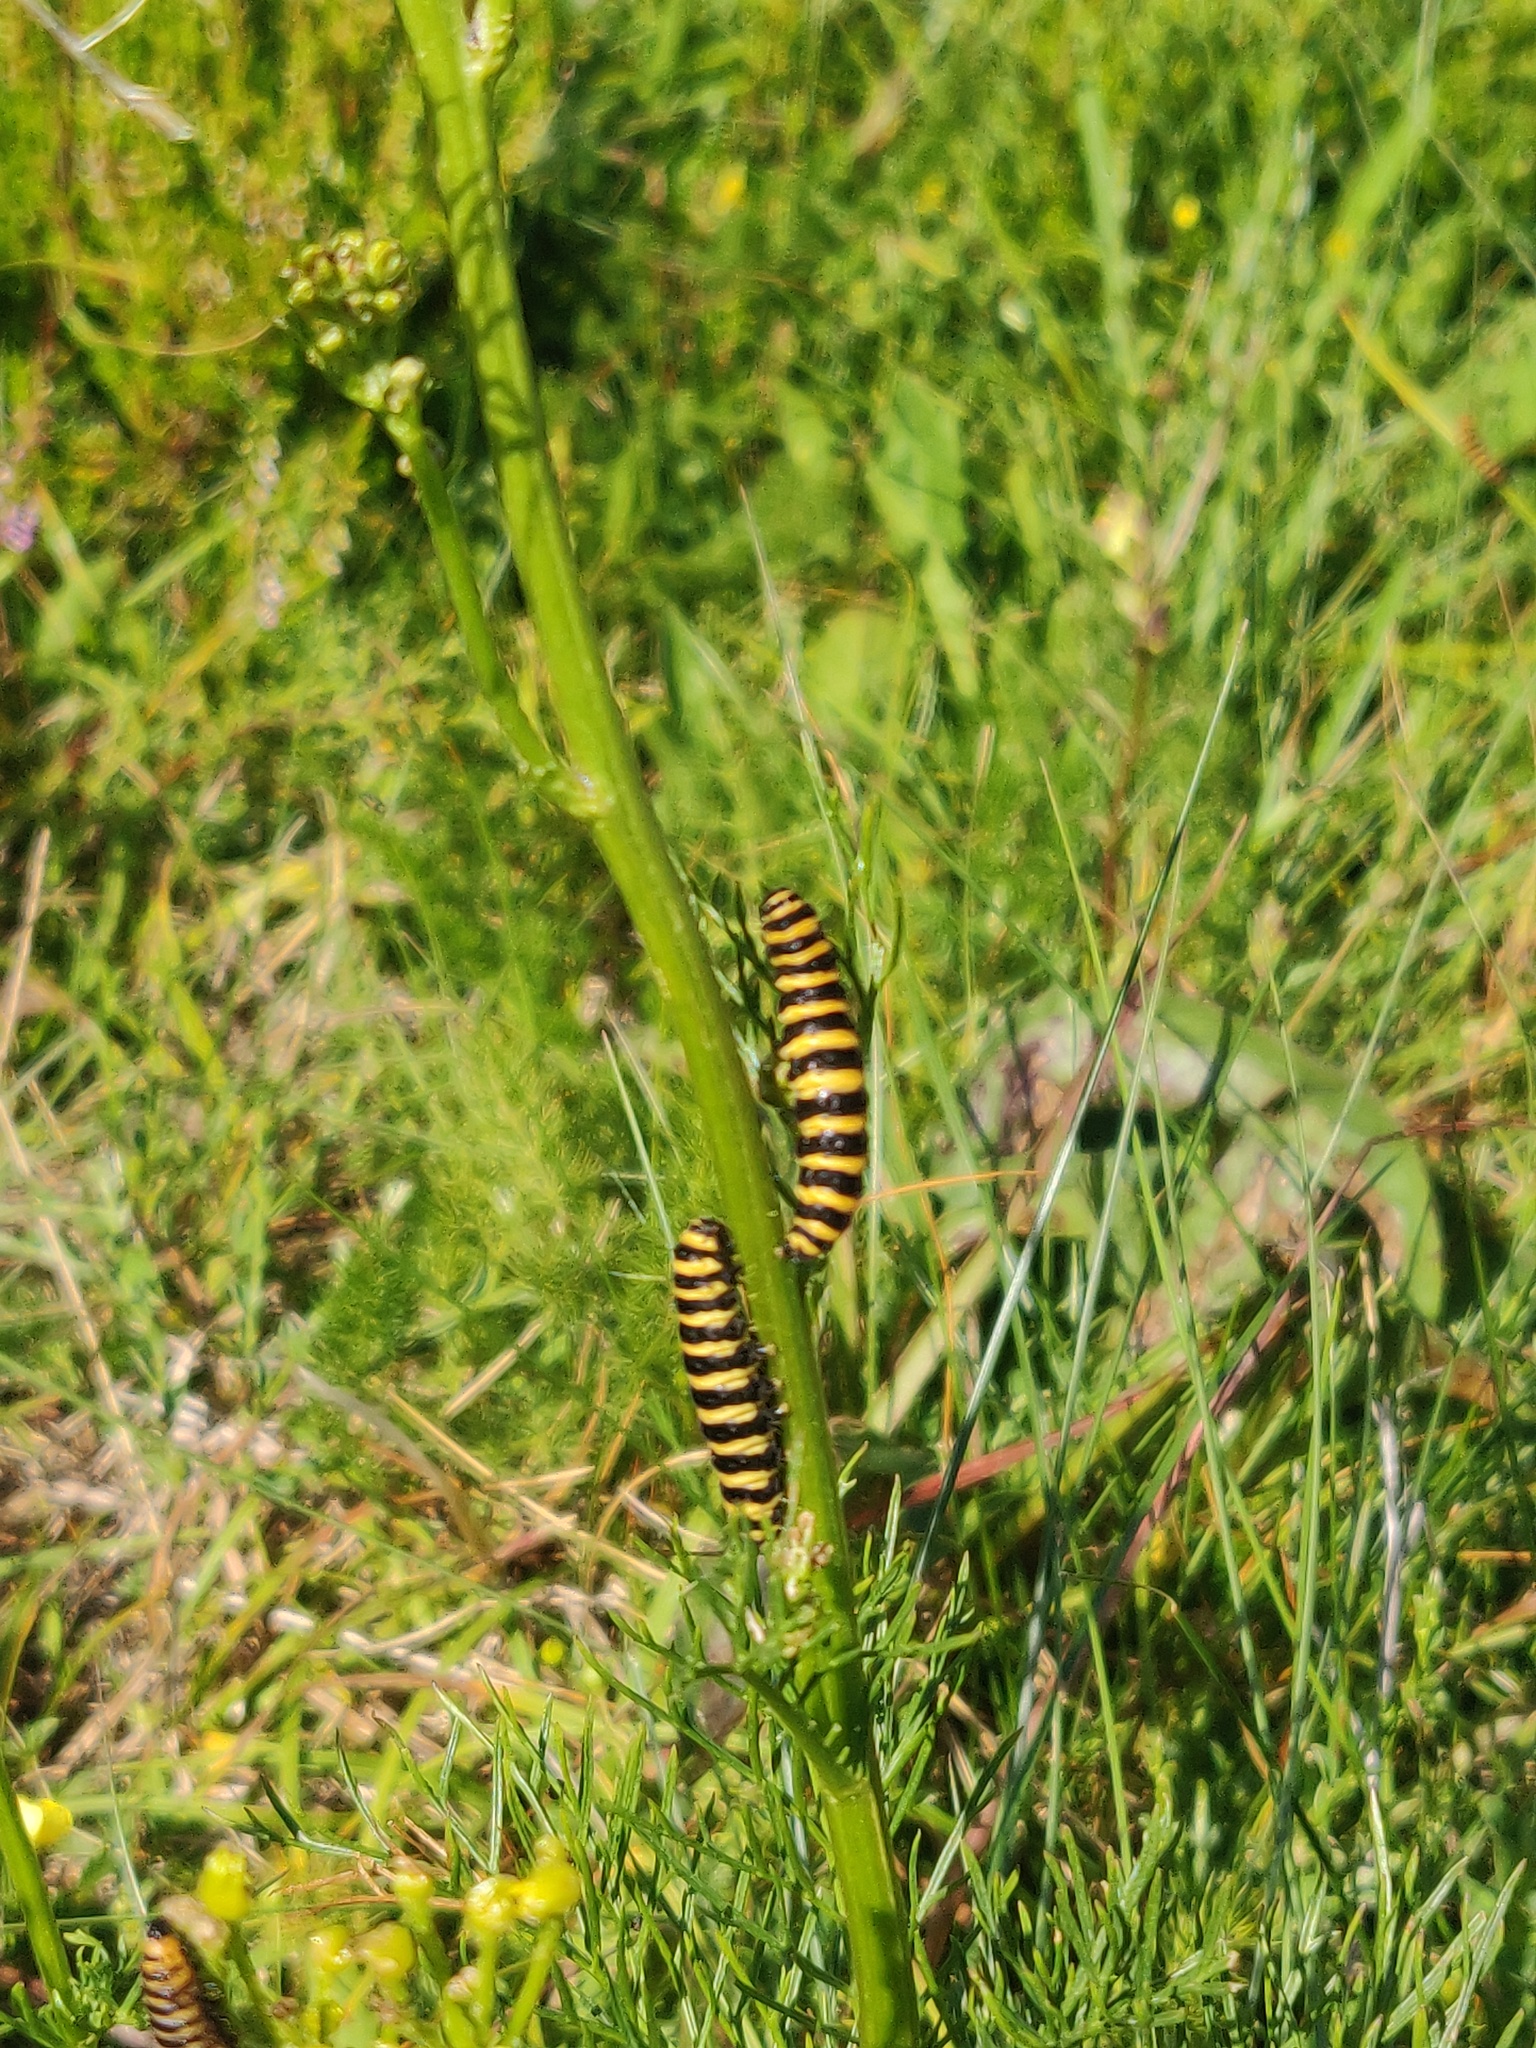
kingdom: Animalia
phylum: Arthropoda
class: Insecta
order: Lepidoptera
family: Erebidae
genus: Tyria
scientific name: Tyria jacobaeae
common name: Cinnabar
